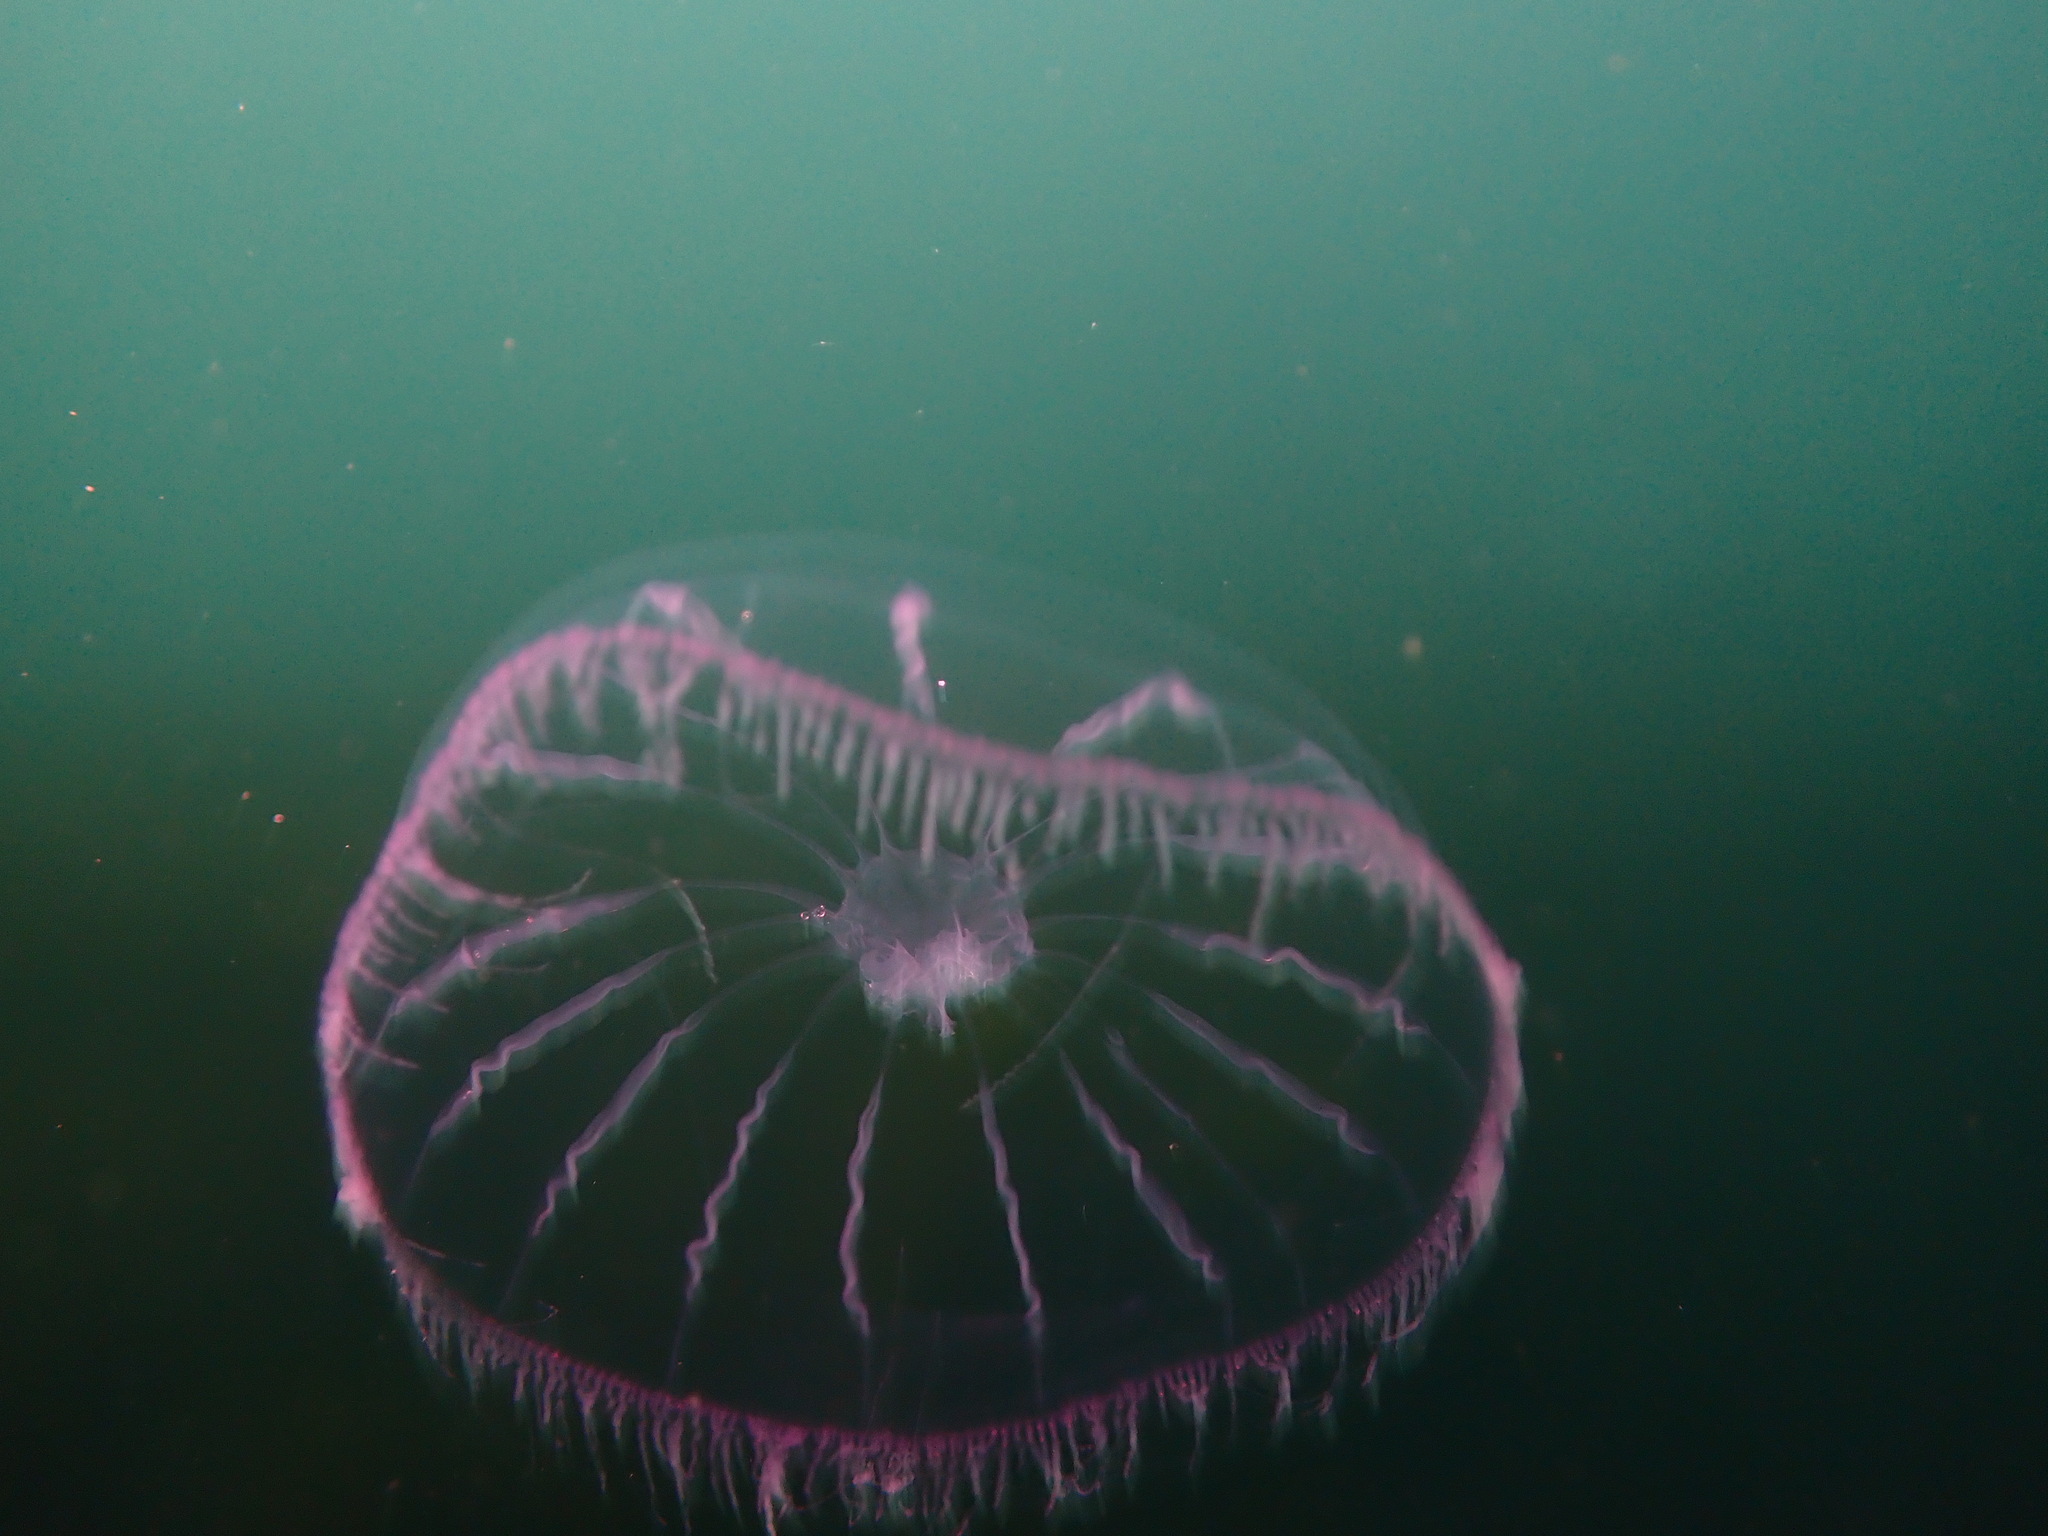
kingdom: Animalia
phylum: Cnidaria
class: Hydrozoa
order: Leptothecata
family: Mitrocomidae
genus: Halopsis
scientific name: Halopsis ocellata
